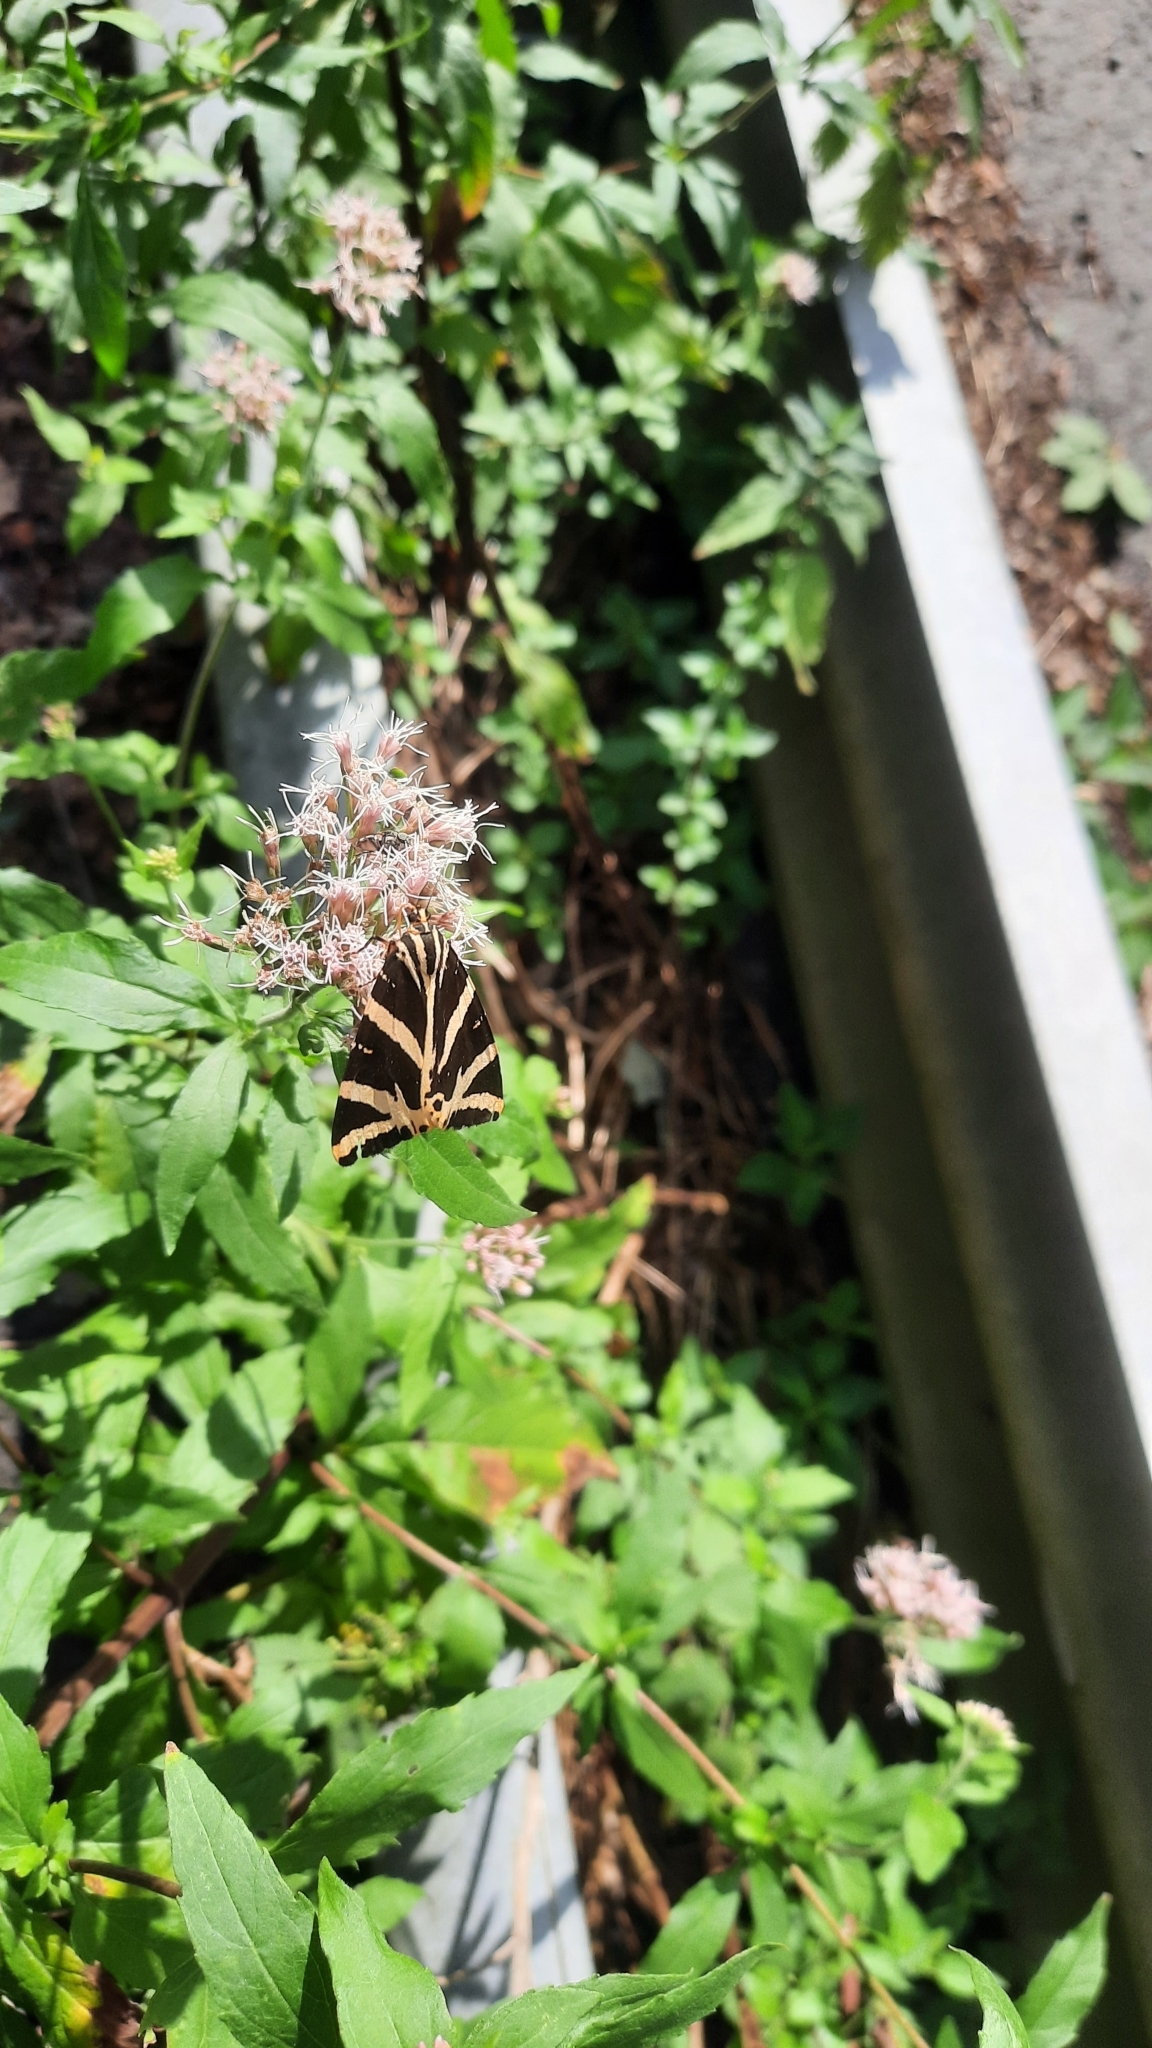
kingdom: Animalia
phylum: Arthropoda
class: Insecta
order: Lepidoptera
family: Erebidae
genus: Euplagia
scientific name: Euplagia quadripunctaria
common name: Jersey tiger
